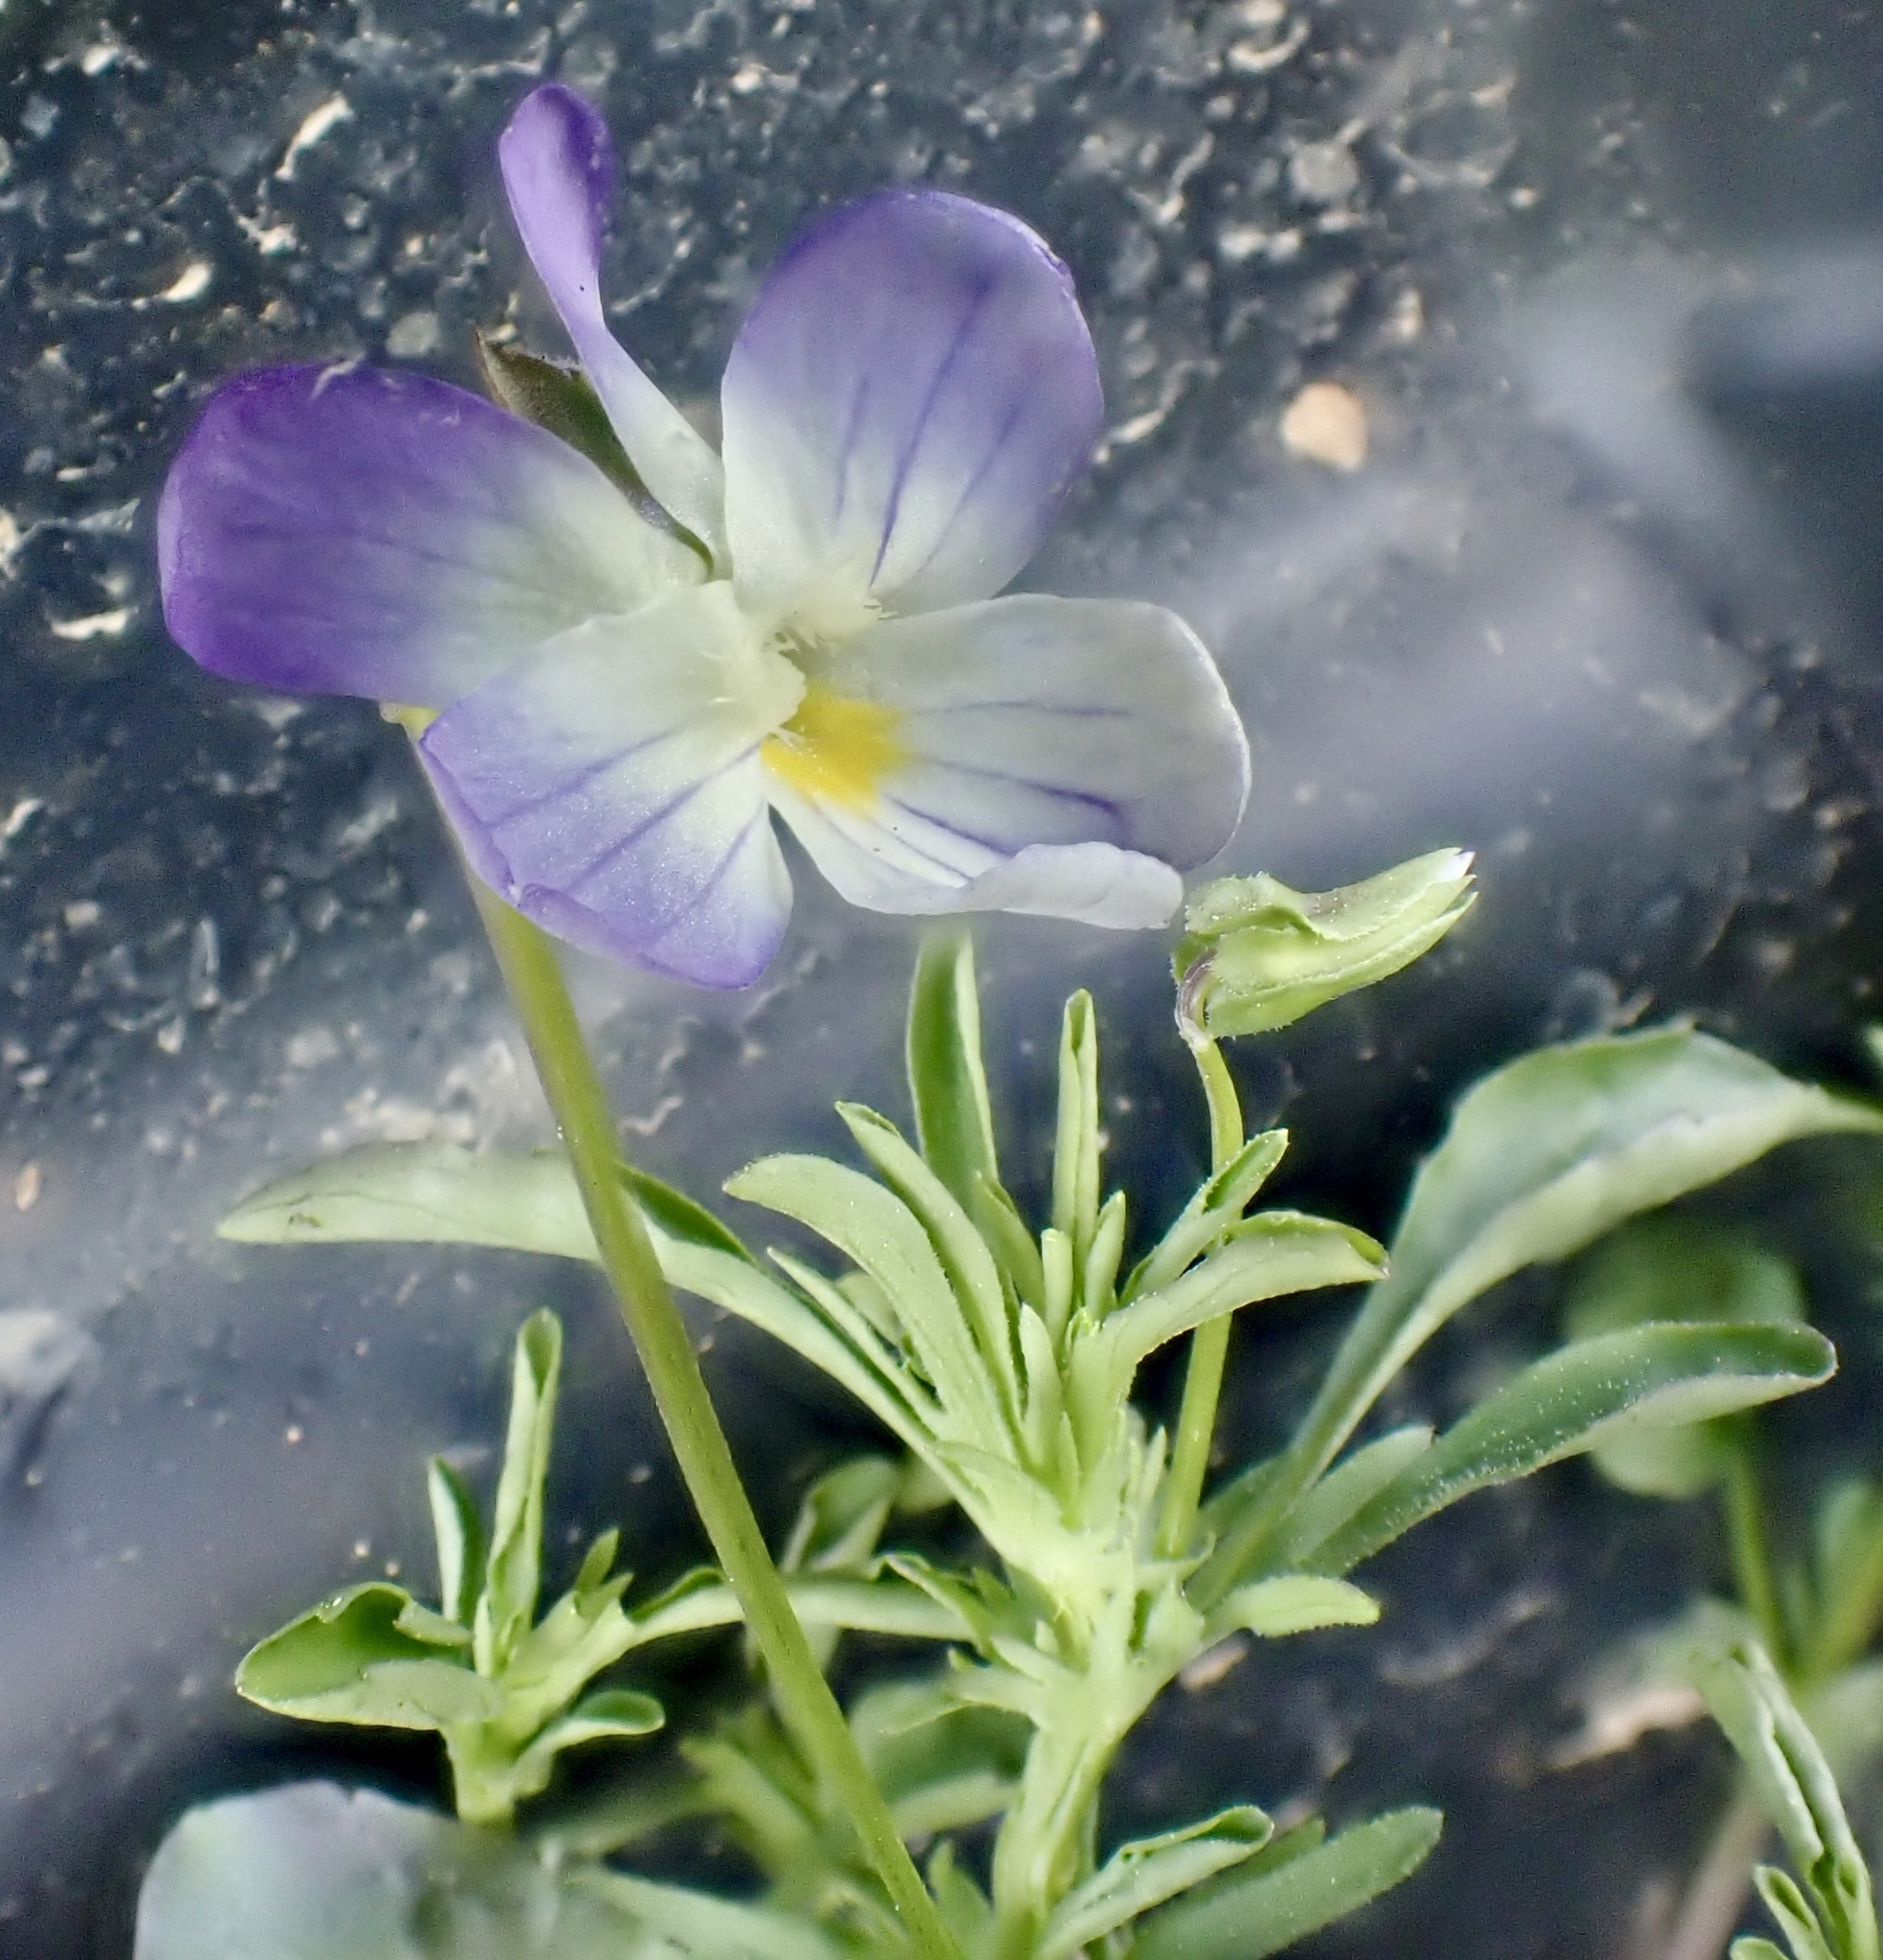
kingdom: Plantae
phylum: Tracheophyta
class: Magnoliopsida
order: Malpighiales
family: Violaceae
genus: Viola
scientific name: Viola rafinesquei
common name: American field pansy
